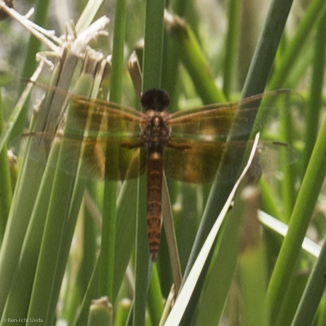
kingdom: Animalia
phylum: Arthropoda
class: Insecta
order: Odonata
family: Libellulidae
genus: Libellula
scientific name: Libellula saturata
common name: Flame skimmer
